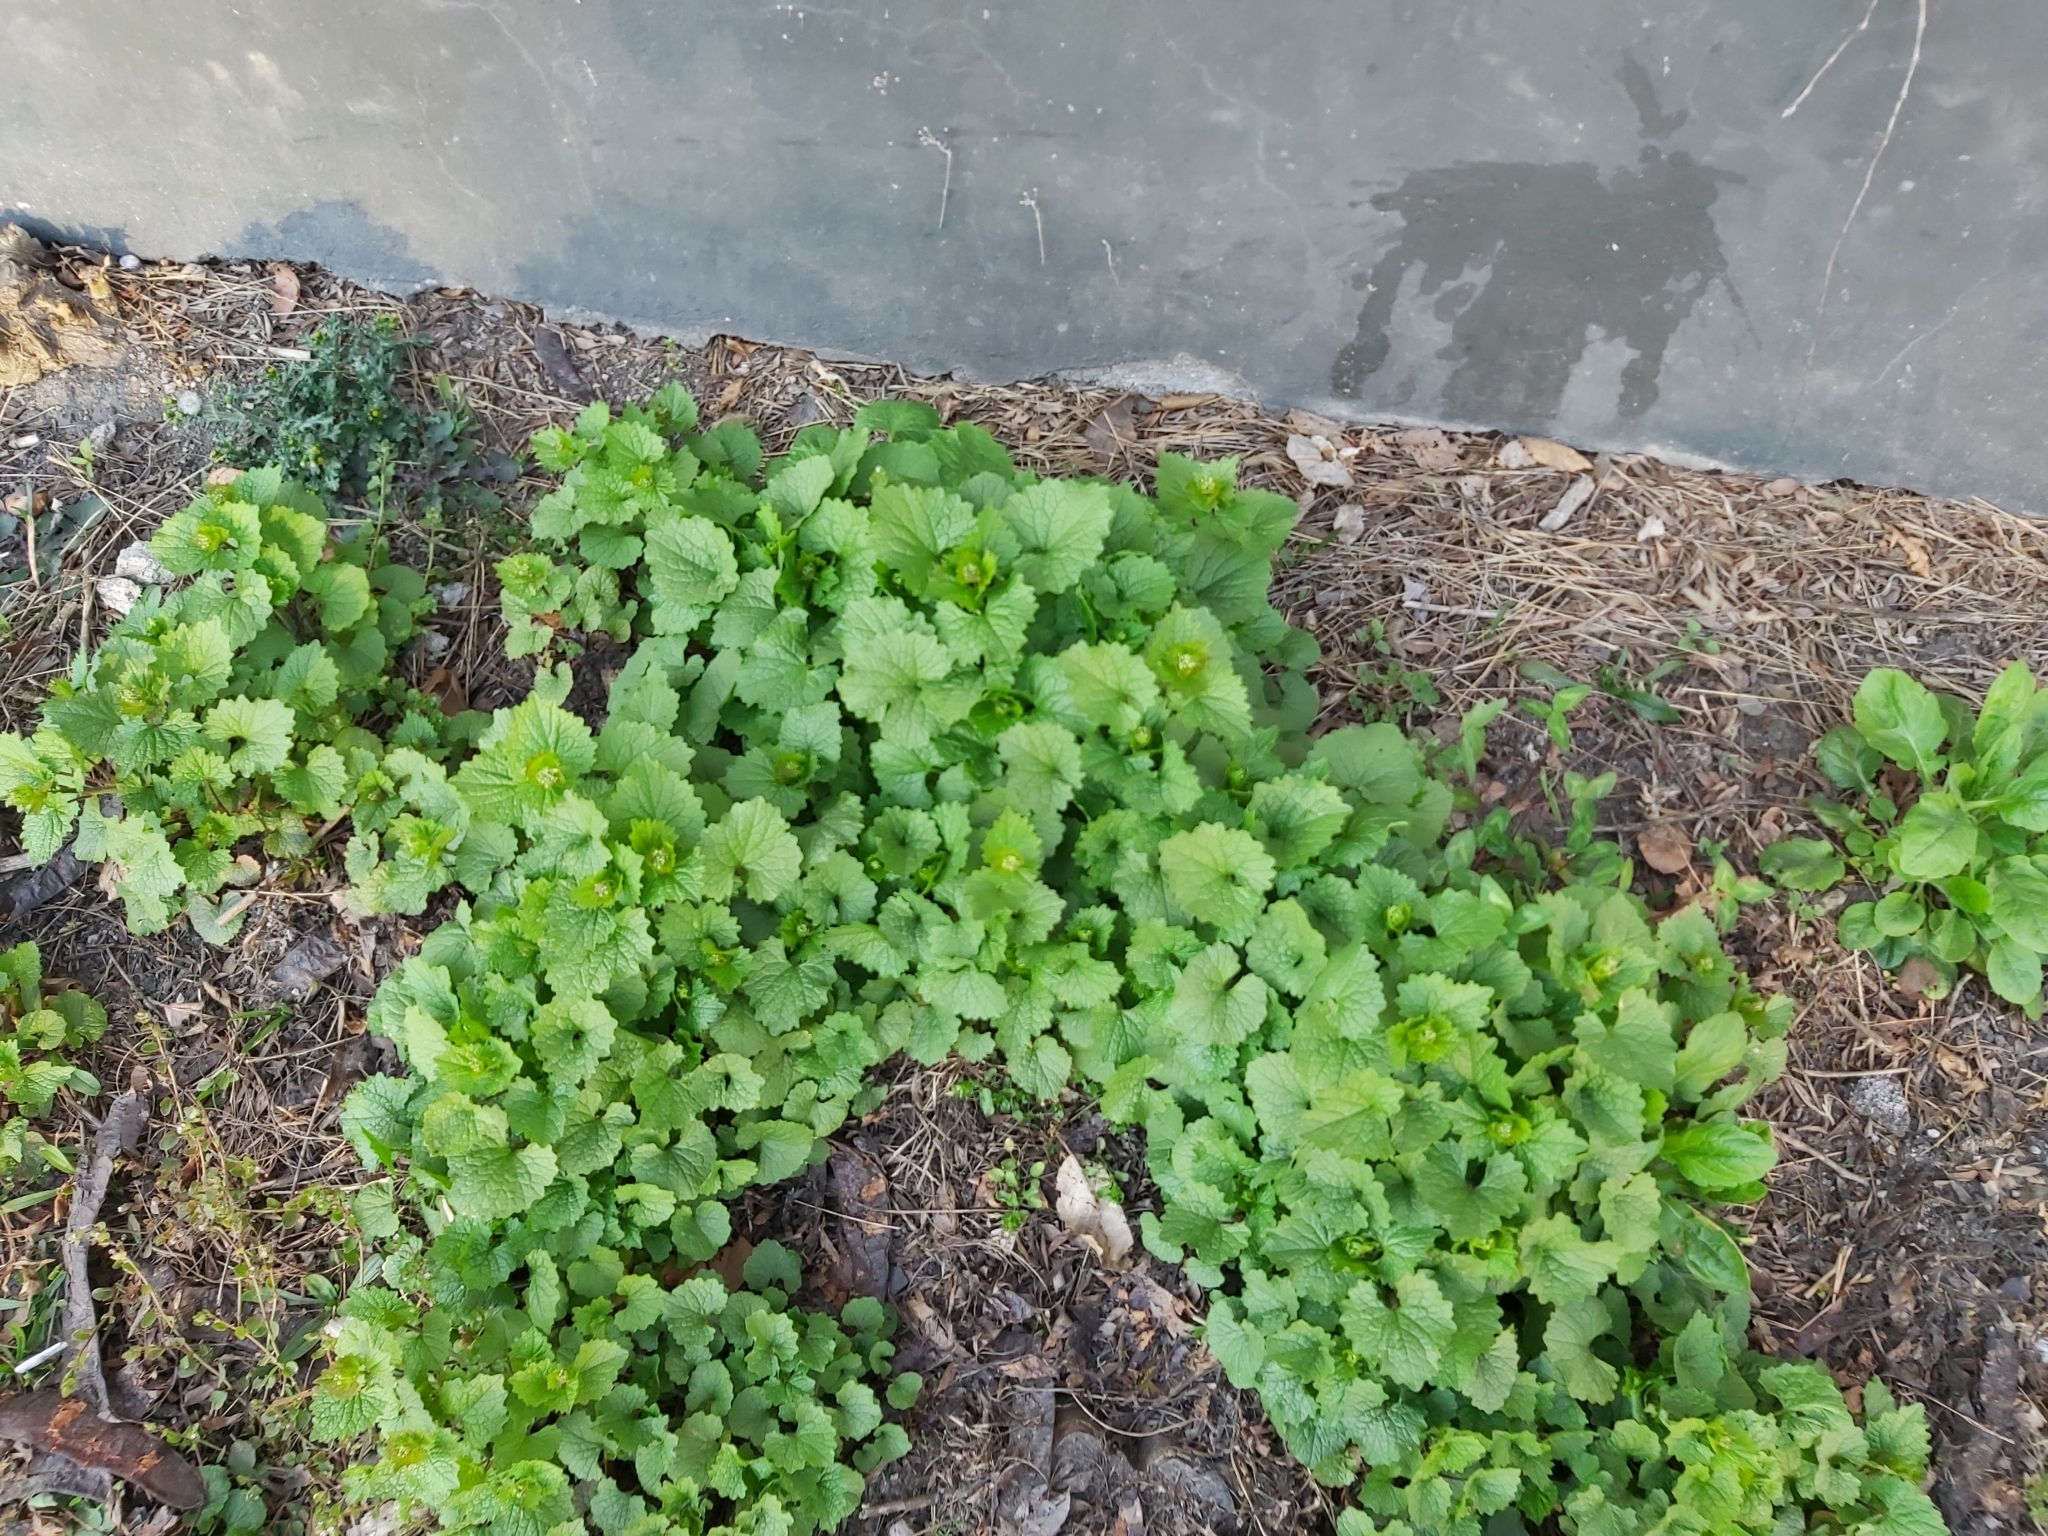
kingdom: Plantae
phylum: Tracheophyta
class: Magnoliopsida
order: Brassicales
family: Brassicaceae
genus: Alliaria
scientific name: Alliaria petiolata
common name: Garlic mustard
